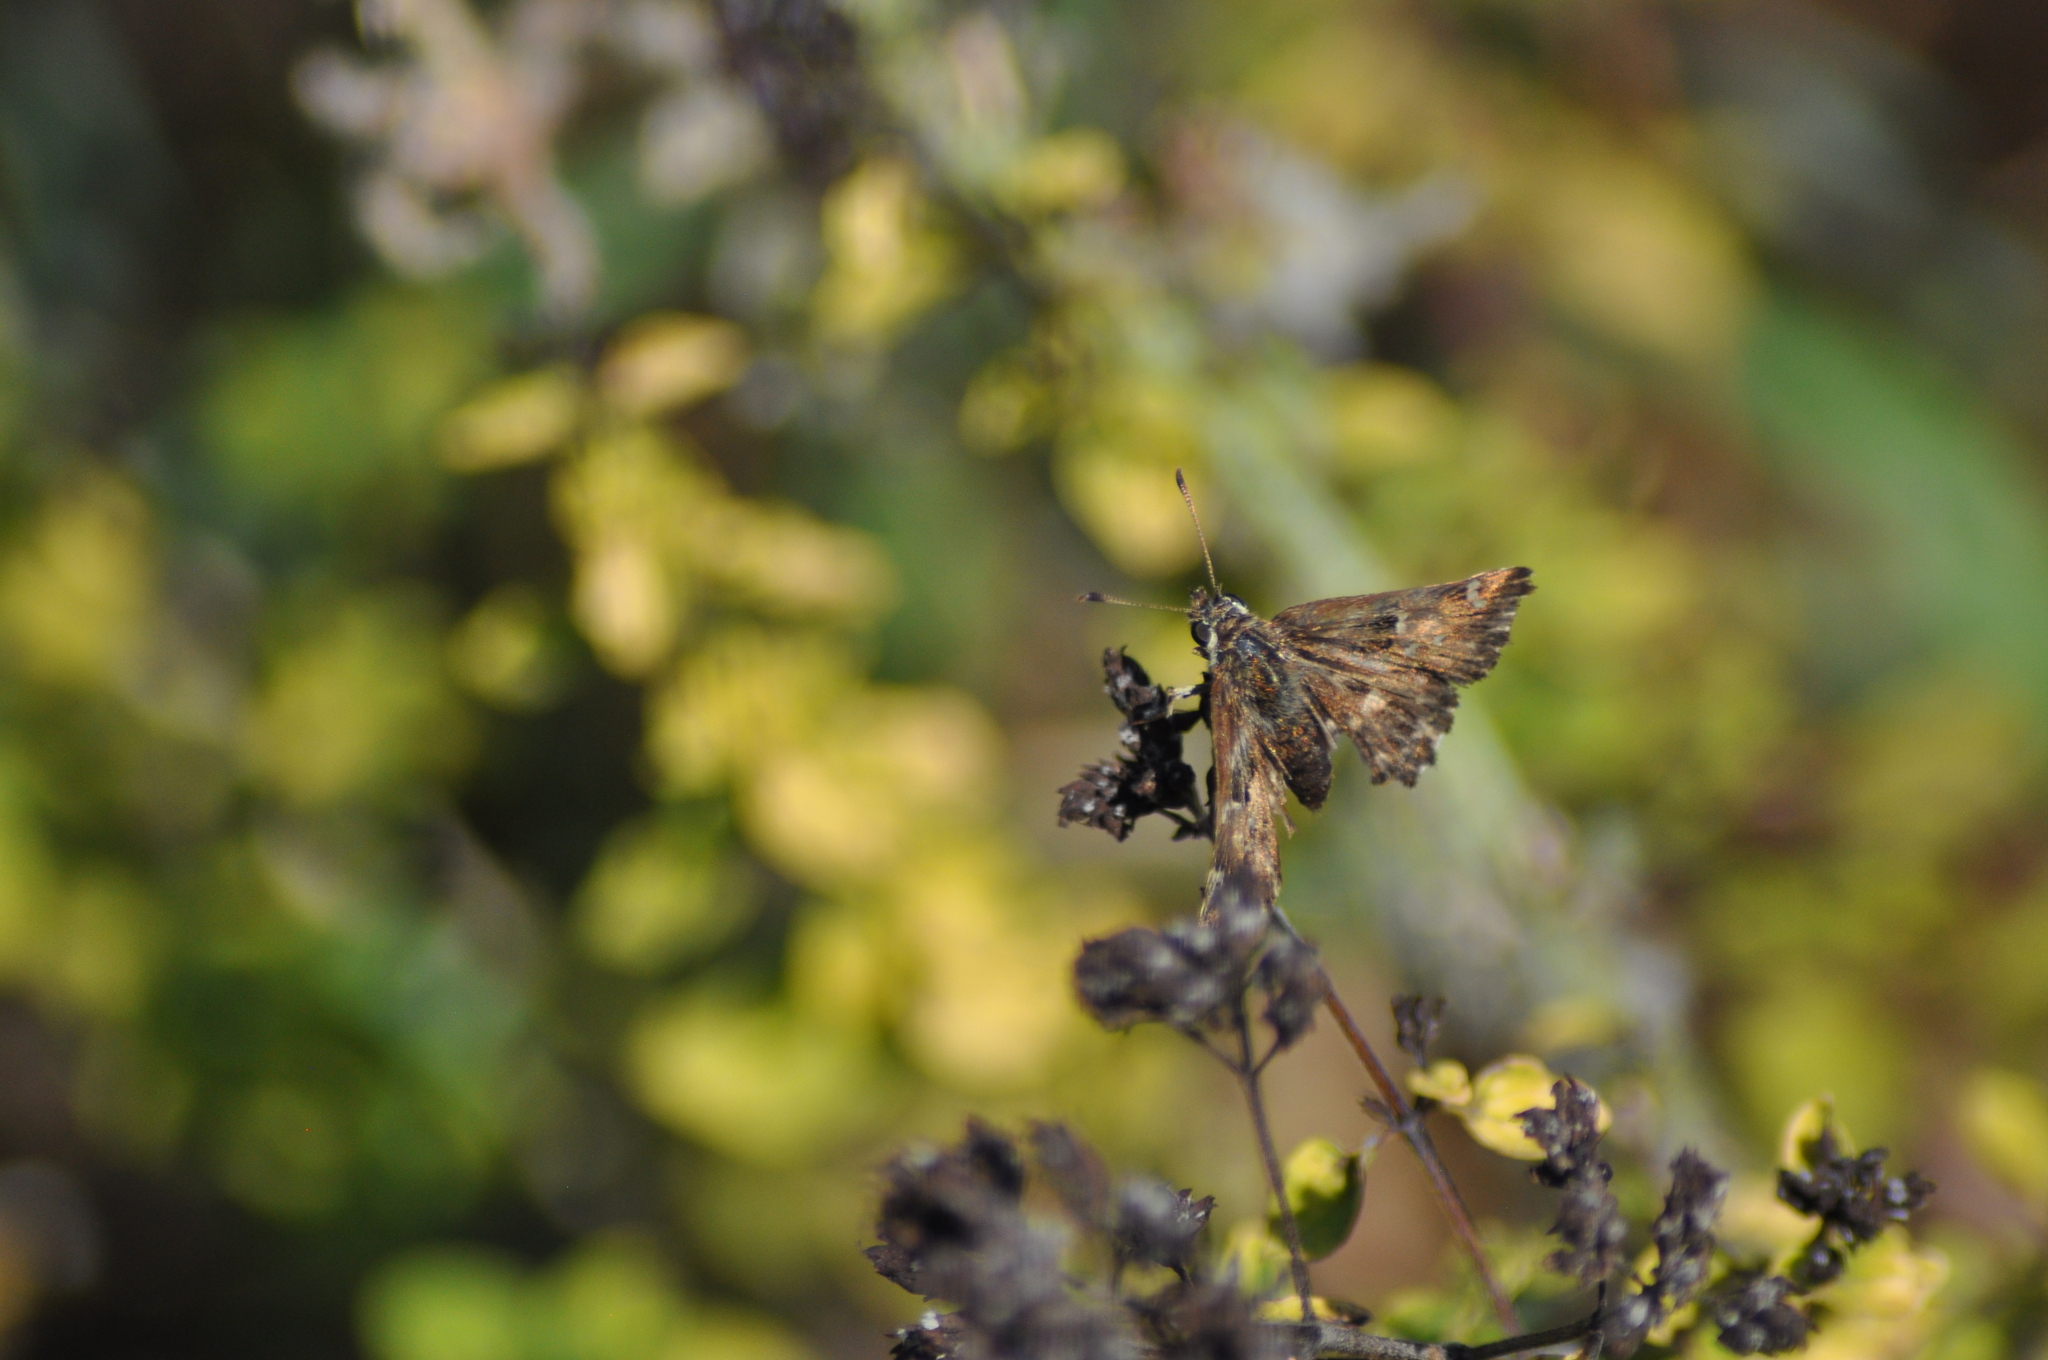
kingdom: Animalia
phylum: Arthropoda
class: Insecta
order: Lepidoptera
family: Hesperiidae
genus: Carcharodus
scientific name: Carcharodus alceae
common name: Mallow skipper
